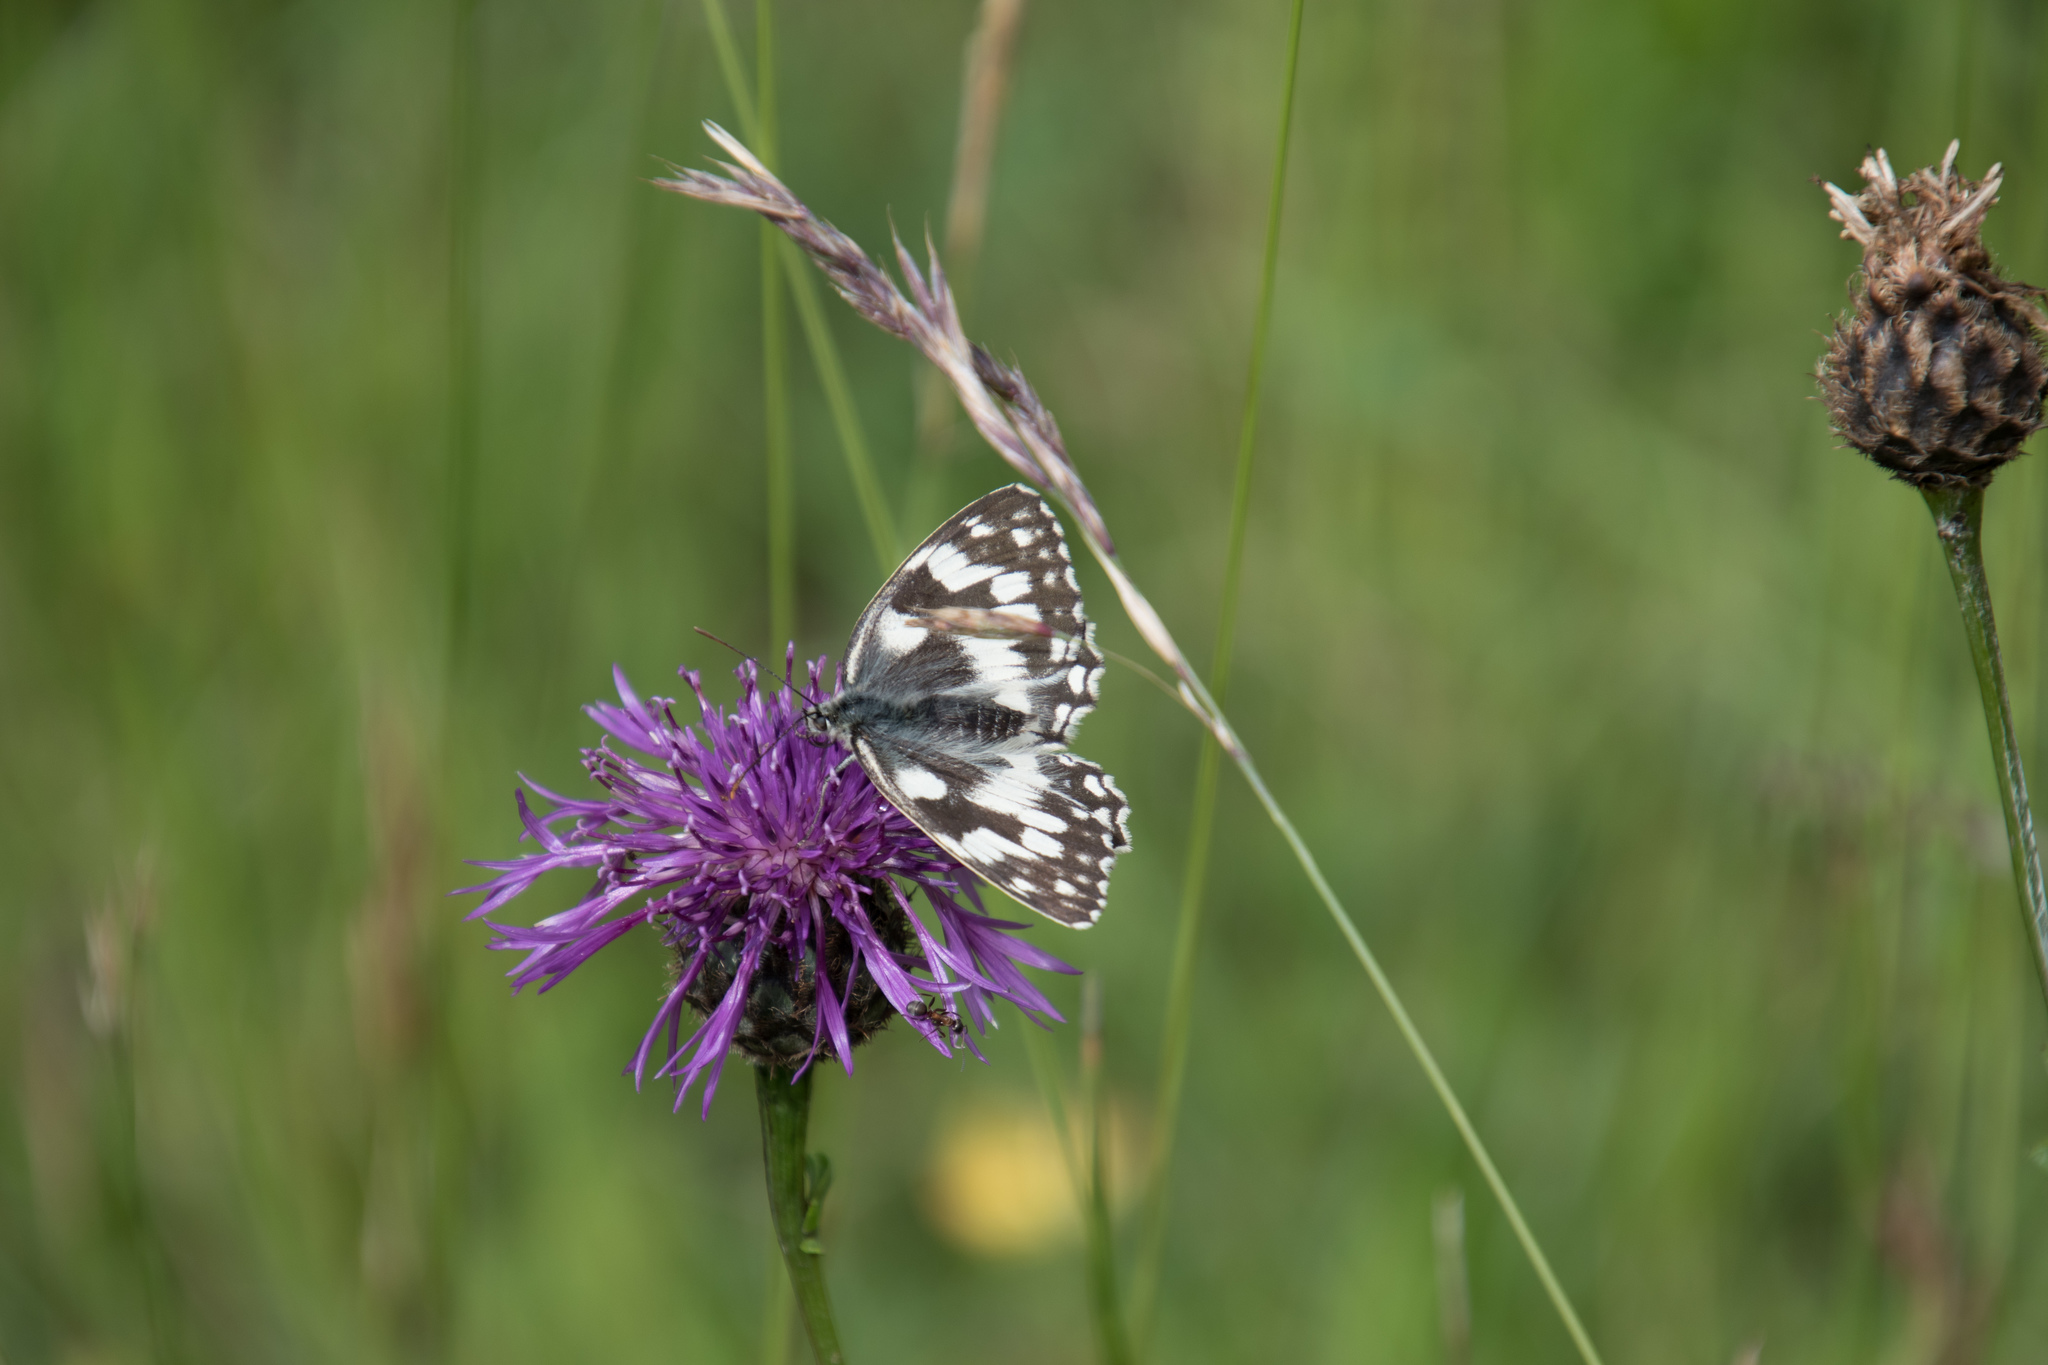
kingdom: Animalia
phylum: Arthropoda
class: Insecta
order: Lepidoptera
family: Nymphalidae
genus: Melanargia
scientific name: Melanargia galathea
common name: Marbled white
